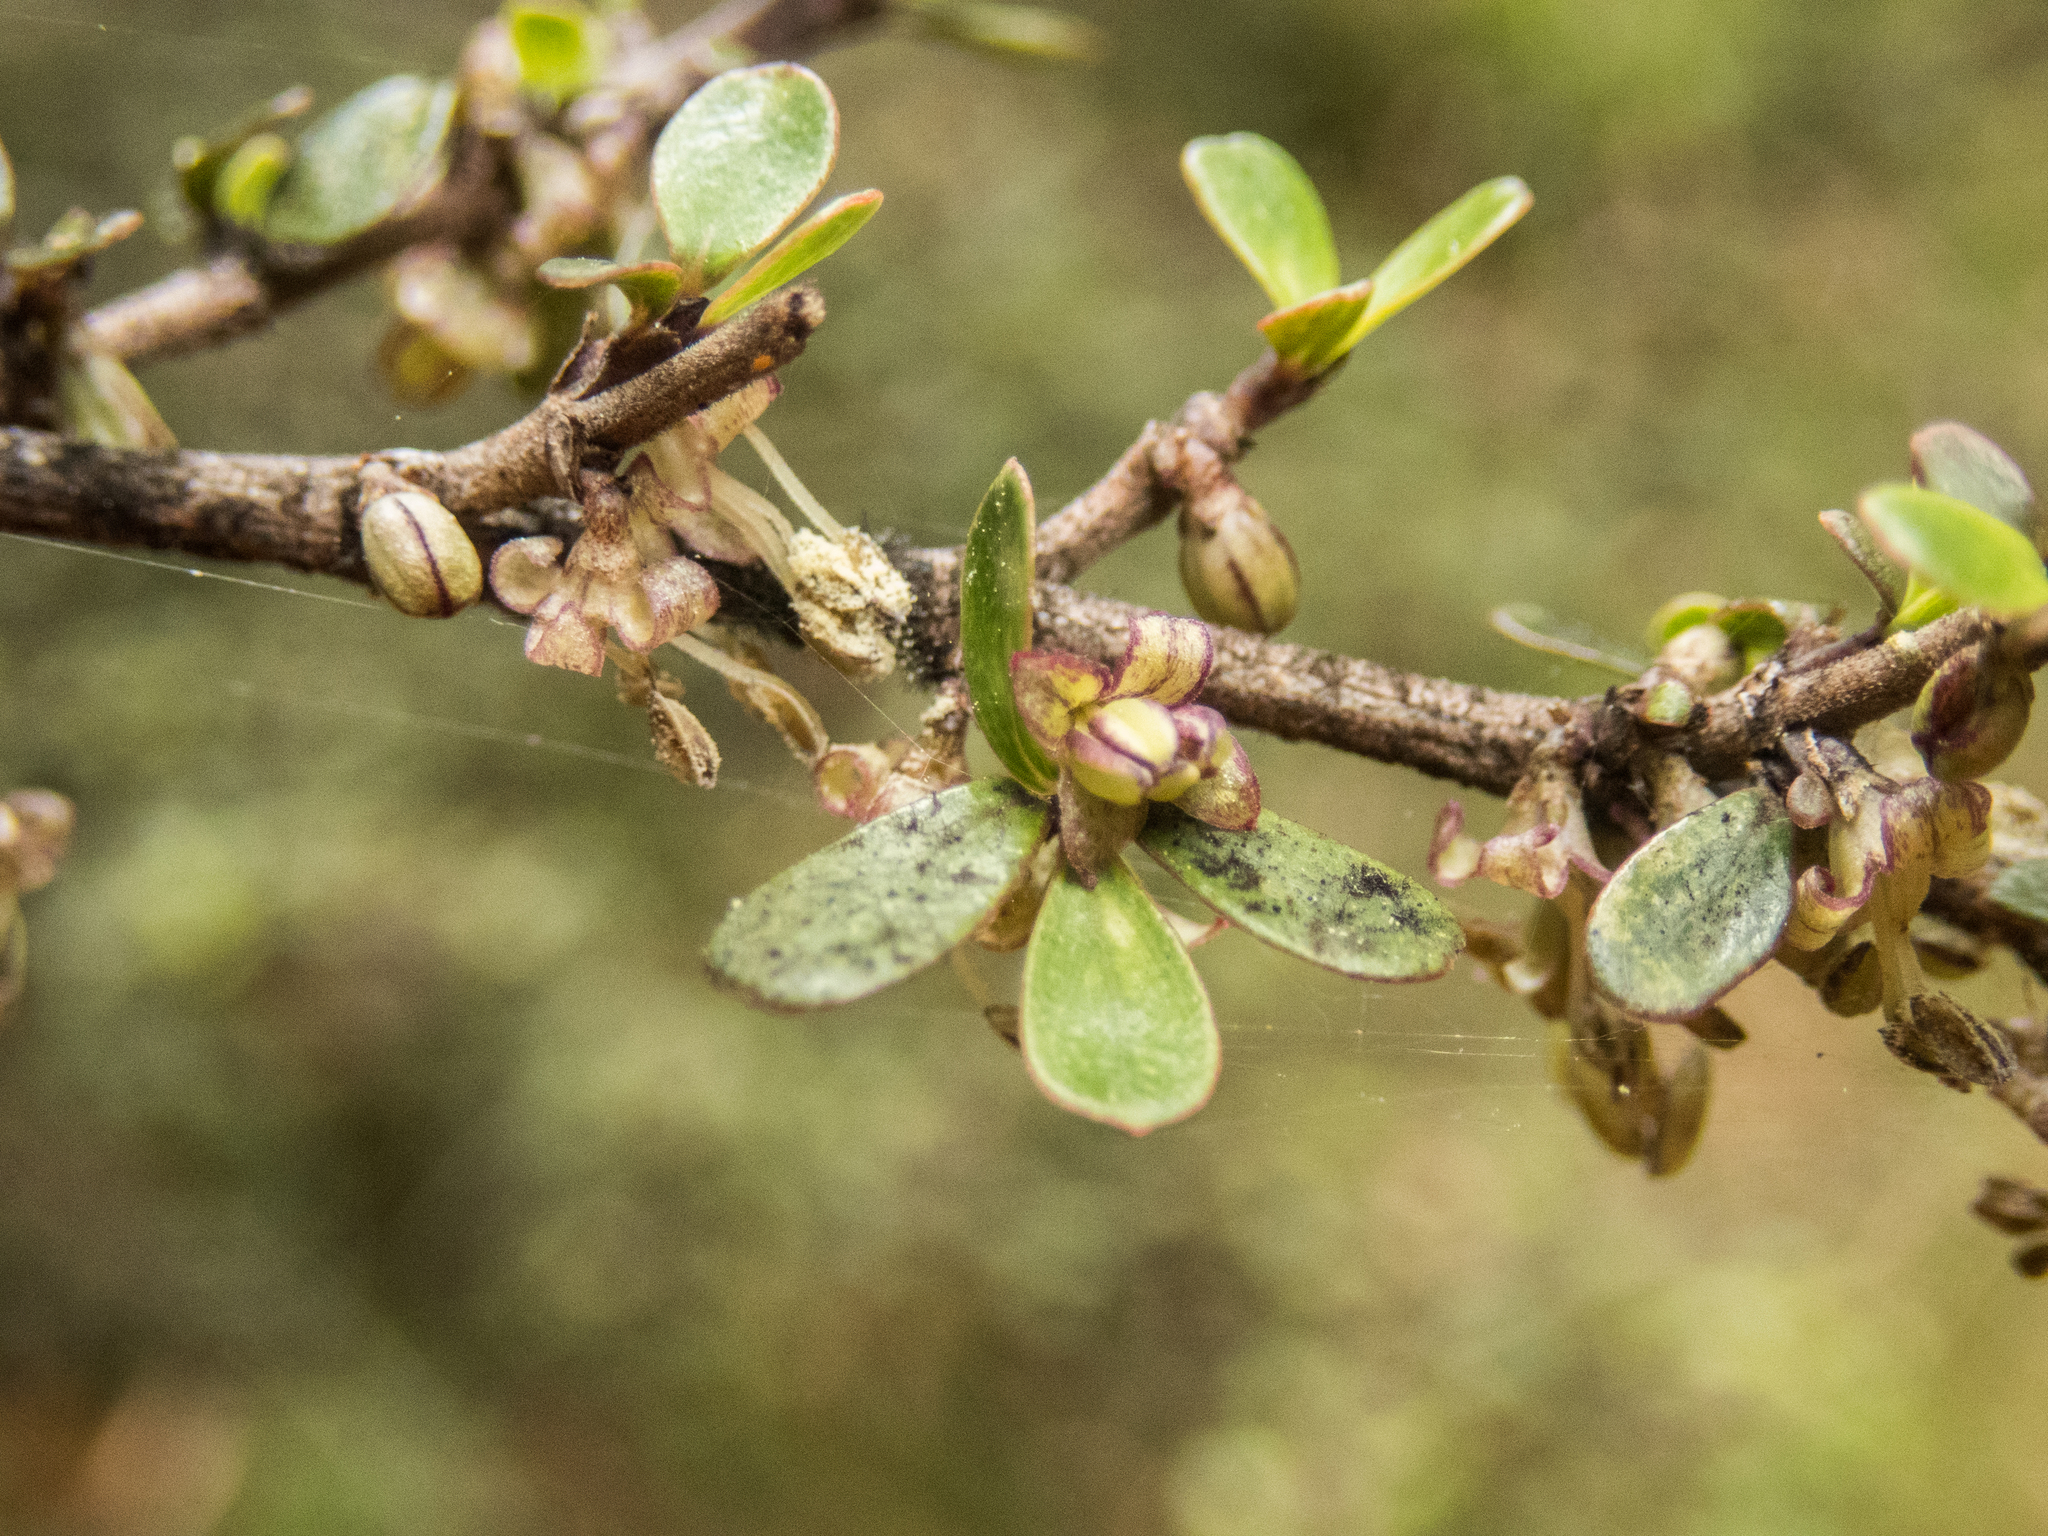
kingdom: Plantae
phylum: Tracheophyta
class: Magnoliopsida
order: Gentianales
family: Rubiaceae
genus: Coprosma
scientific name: Coprosma dumosa
